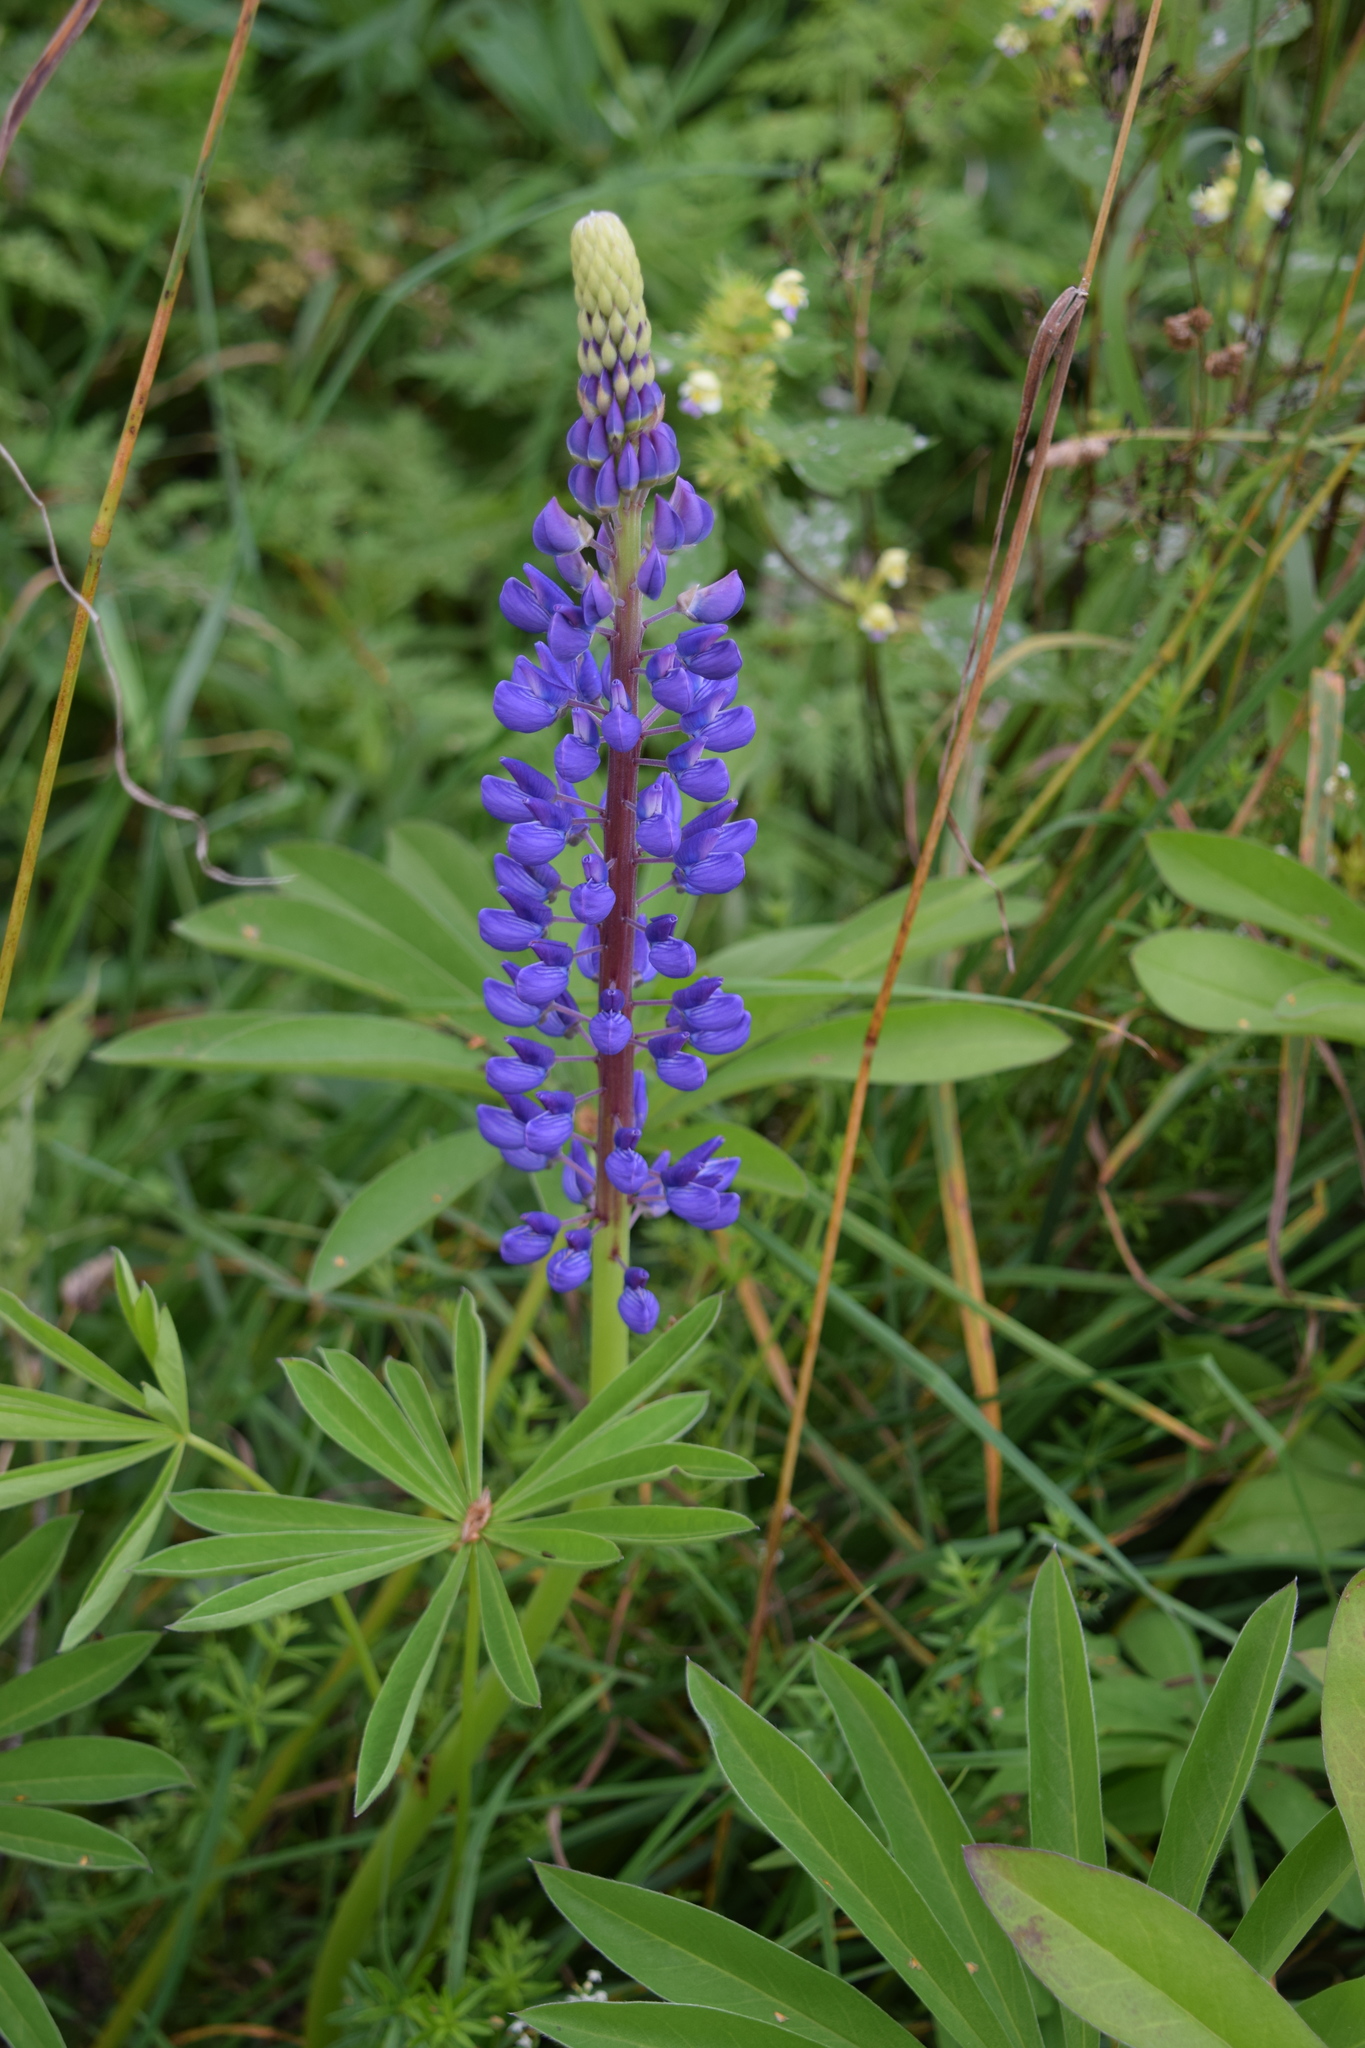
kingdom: Plantae
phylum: Tracheophyta
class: Magnoliopsida
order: Fabales
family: Fabaceae
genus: Lupinus
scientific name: Lupinus polyphyllus
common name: Garden lupin
